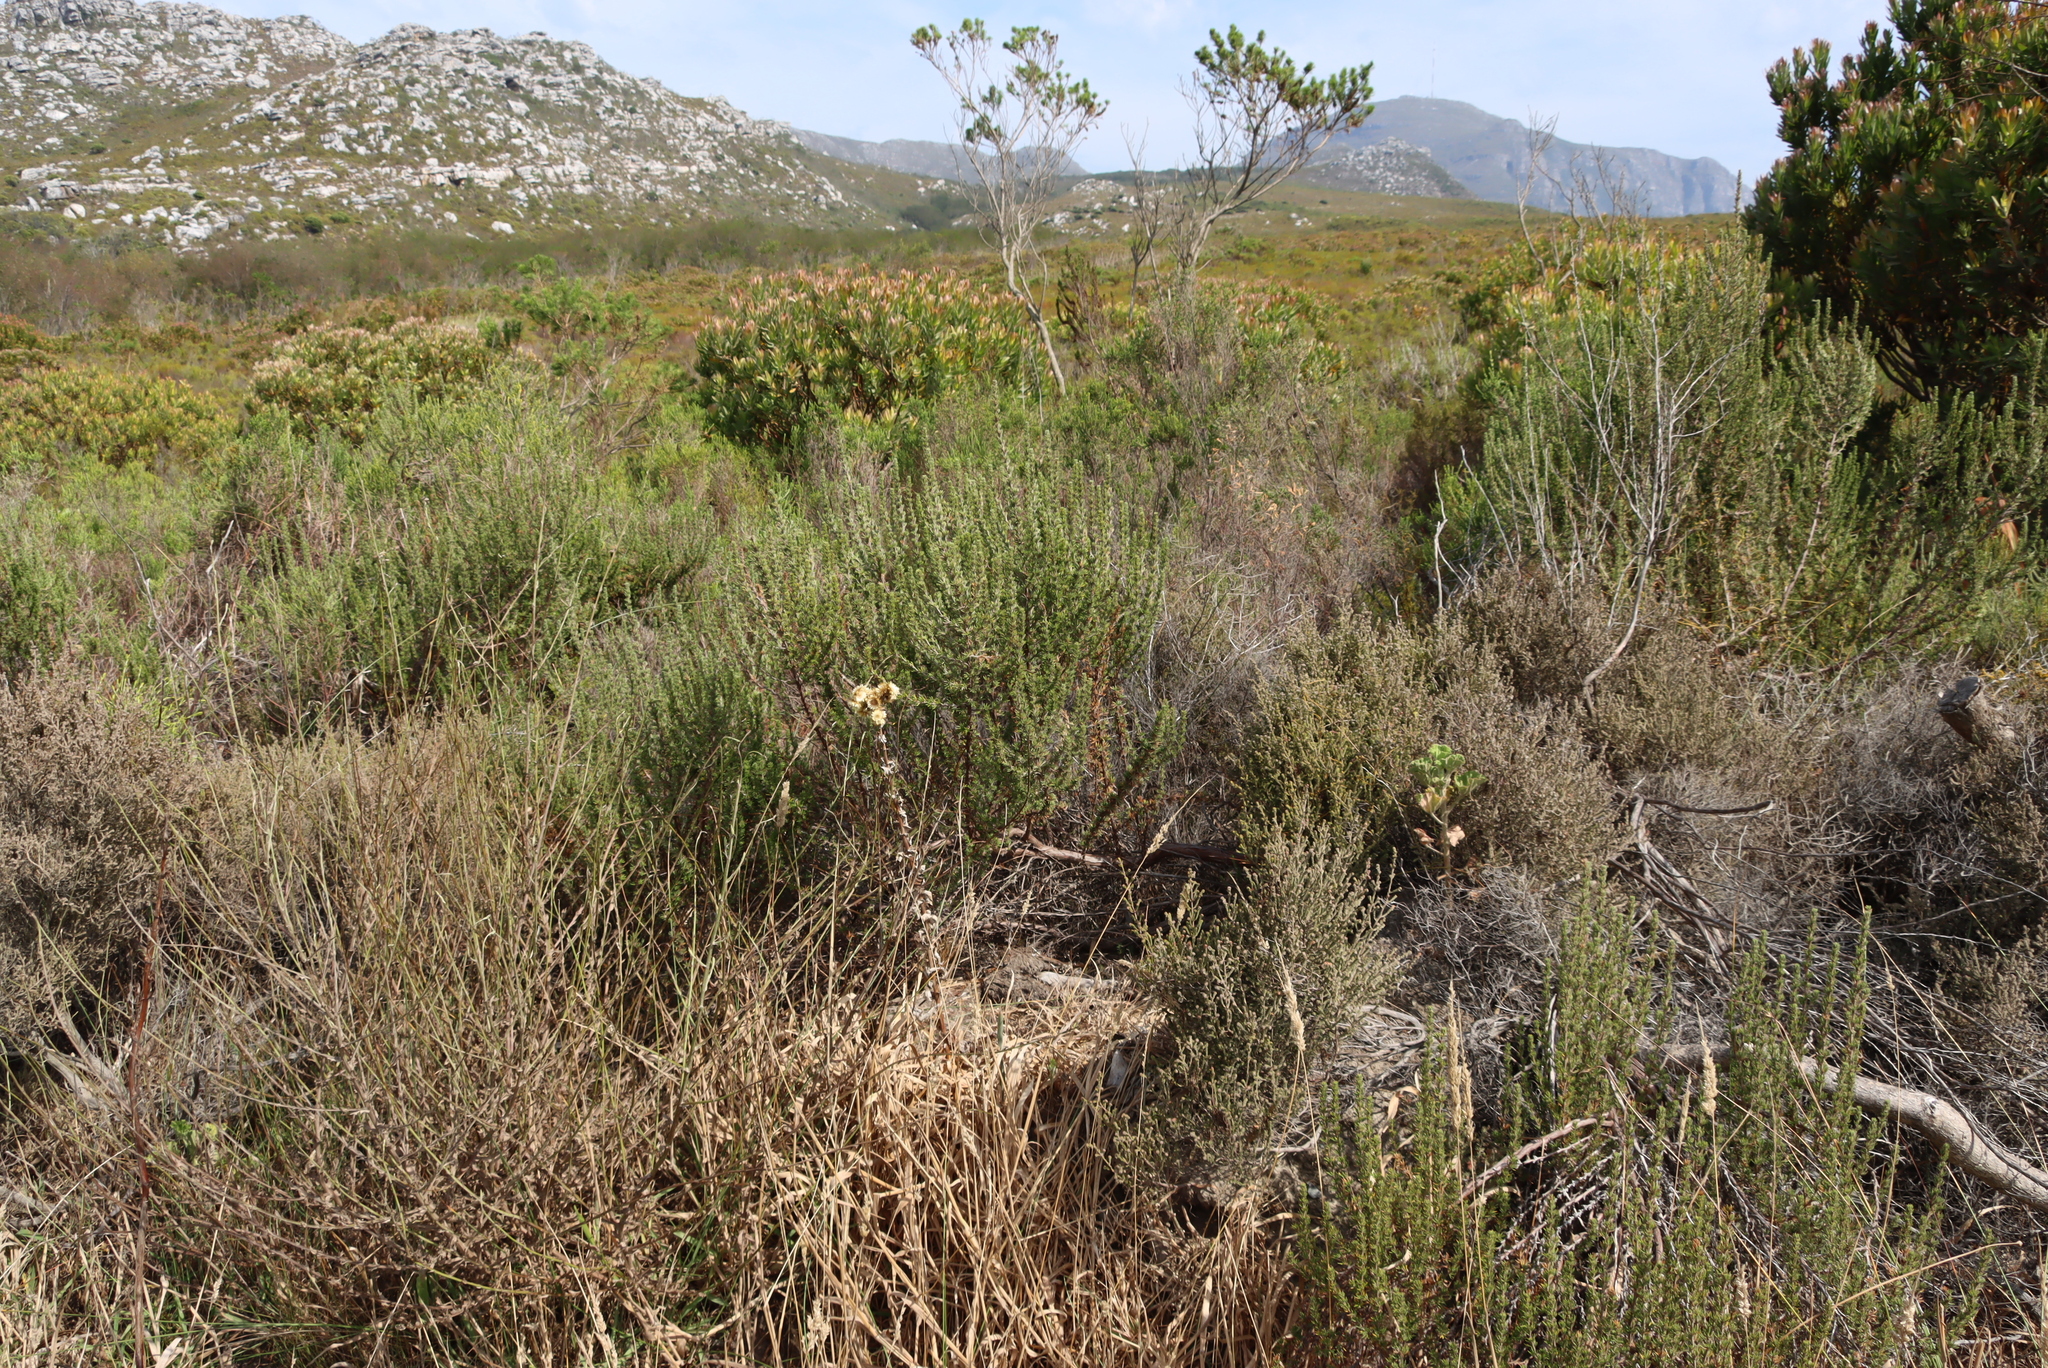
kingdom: Plantae
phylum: Tracheophyta
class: Magnoliopsida
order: Asterales
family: Asteraceae
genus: Helichrysum
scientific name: Helichrysum foetidum
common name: Stinking everlasting
